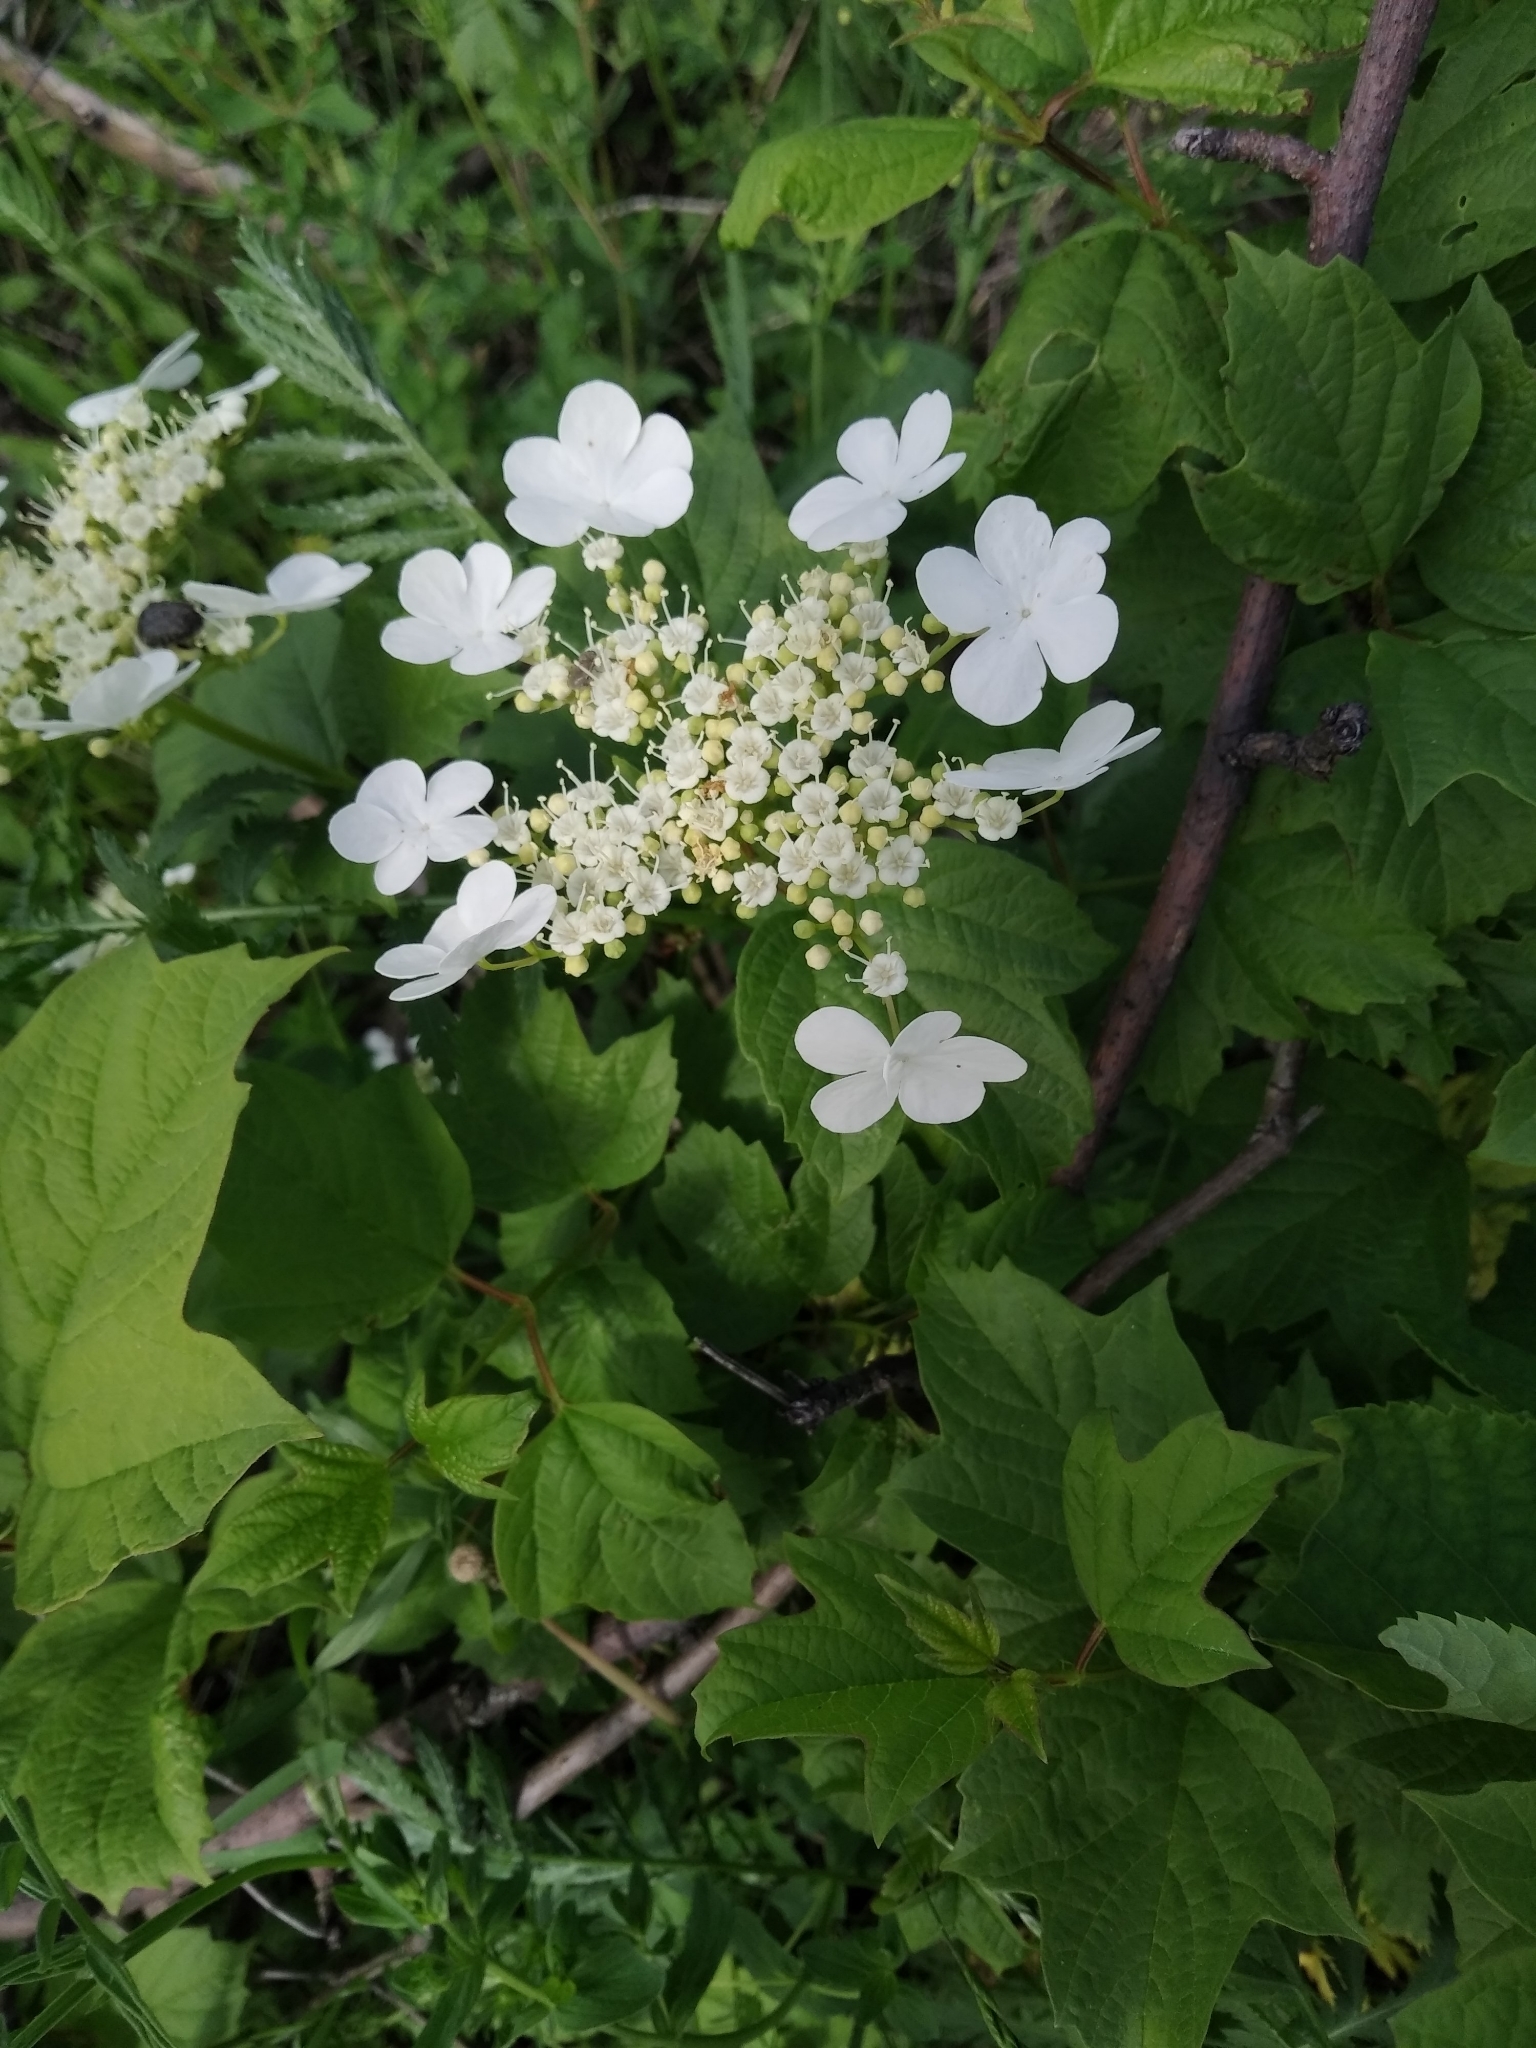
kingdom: Plantae
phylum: Tracheophyta
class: Magnoliopsida
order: Dipsacales
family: Viburnaceae
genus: Viburnum
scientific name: Viburnum opulus
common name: Guelder-rose
